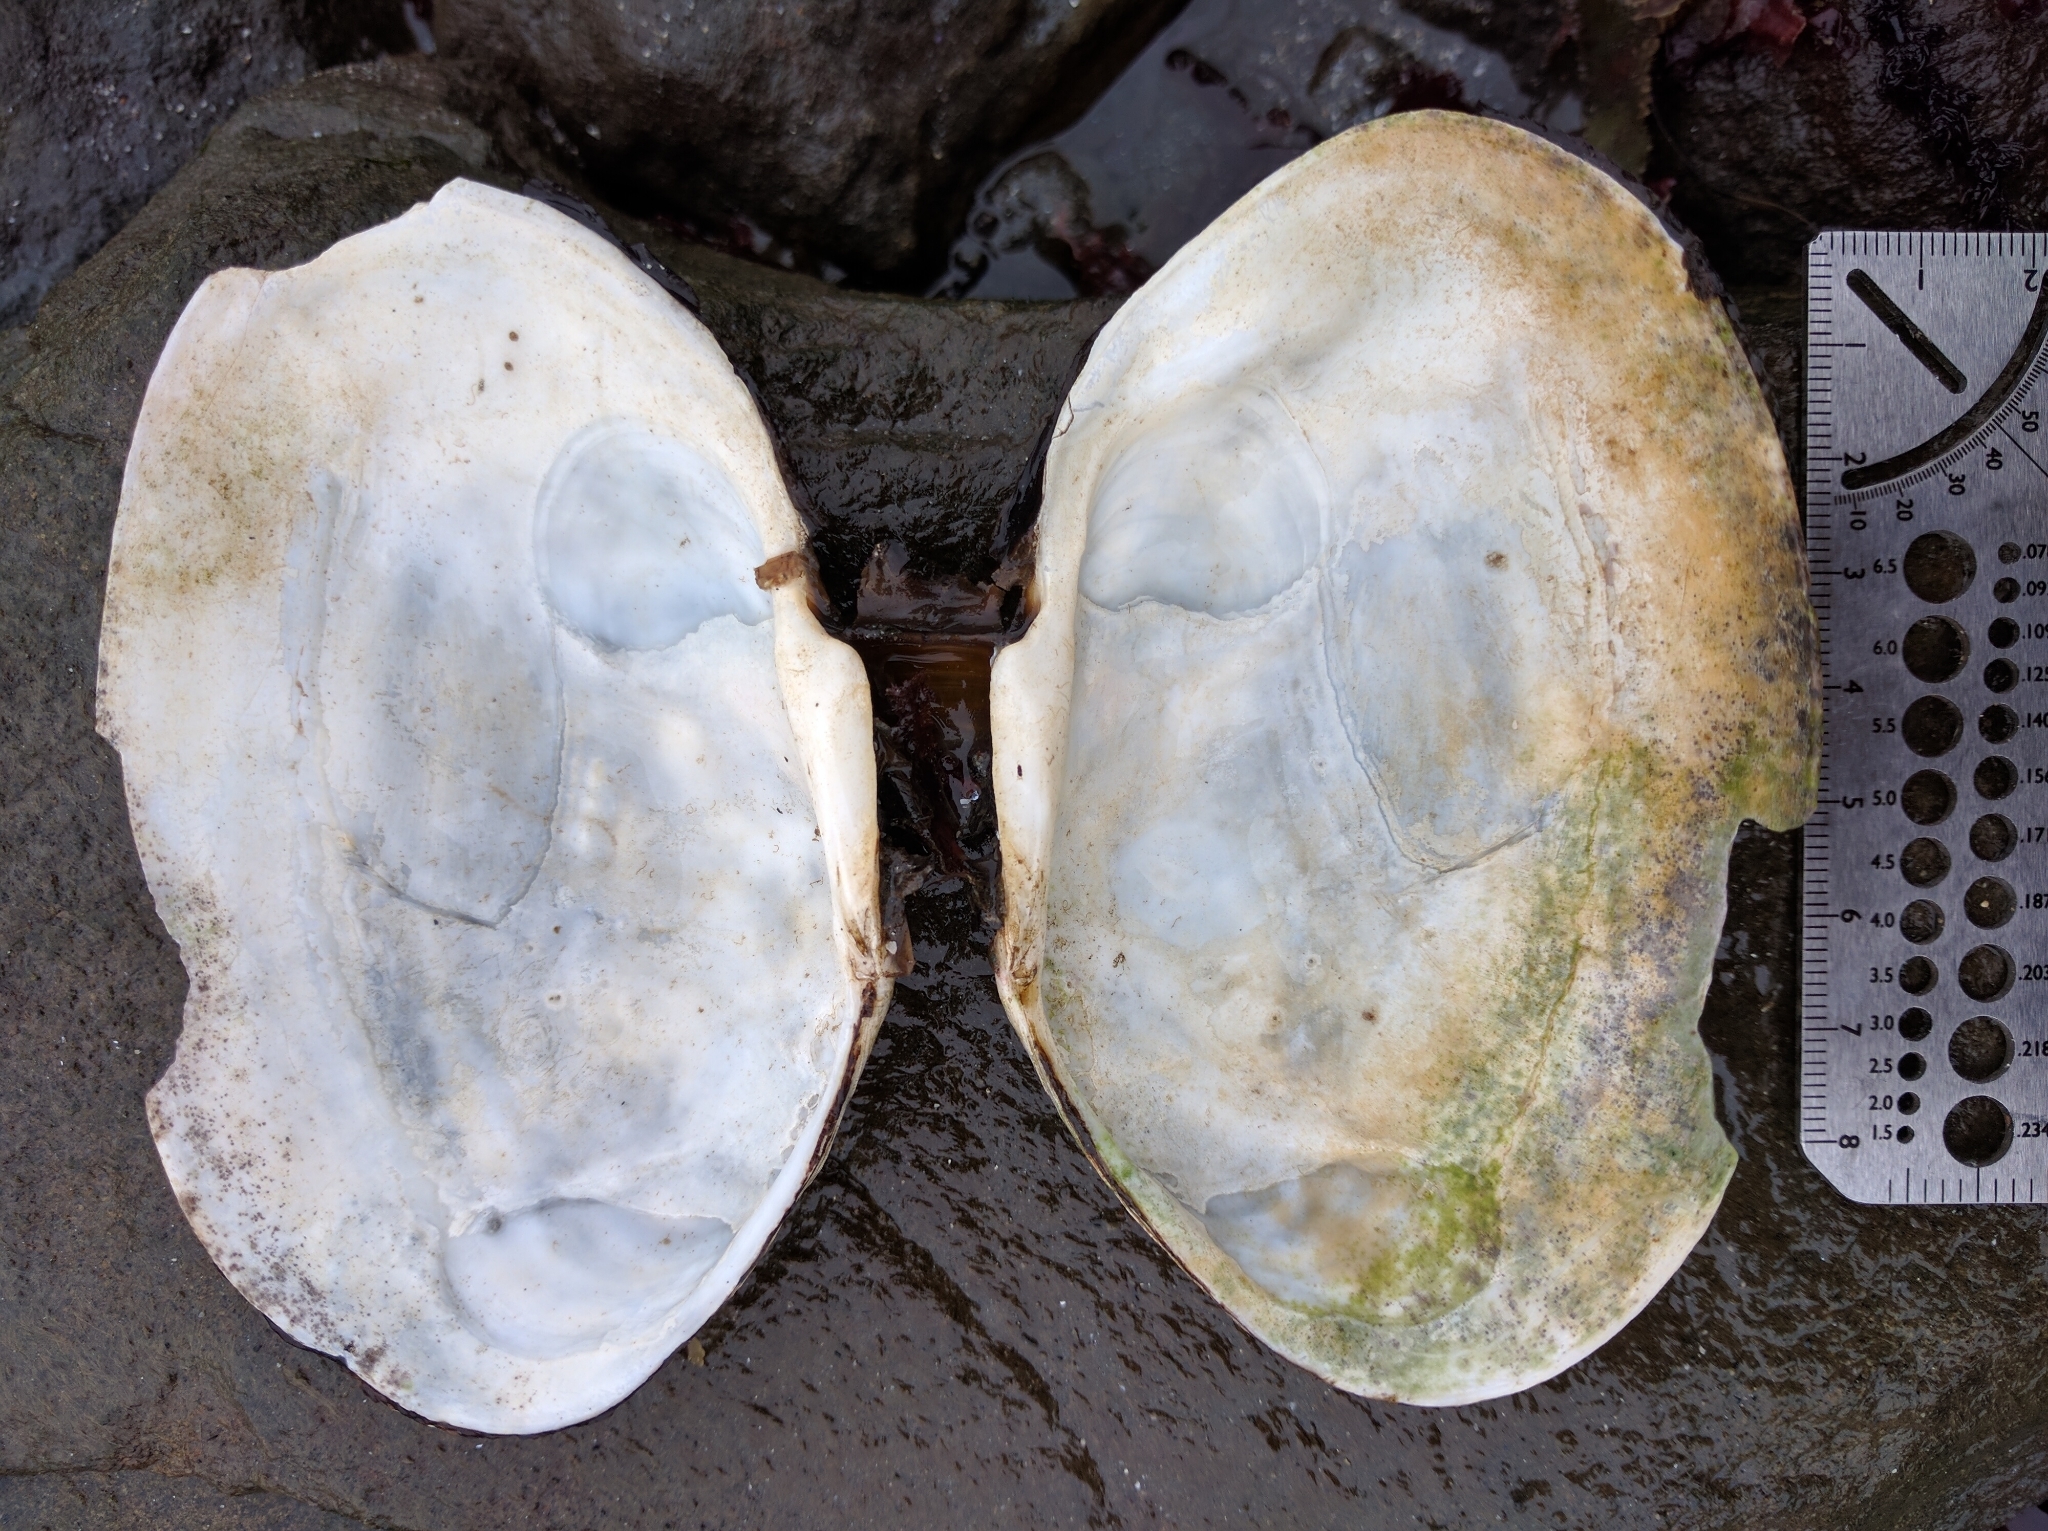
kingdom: Animalia
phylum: Mollusca
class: Bivalvia
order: Cardiida
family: Psammobiidae
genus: Gari
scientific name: Gari californica
